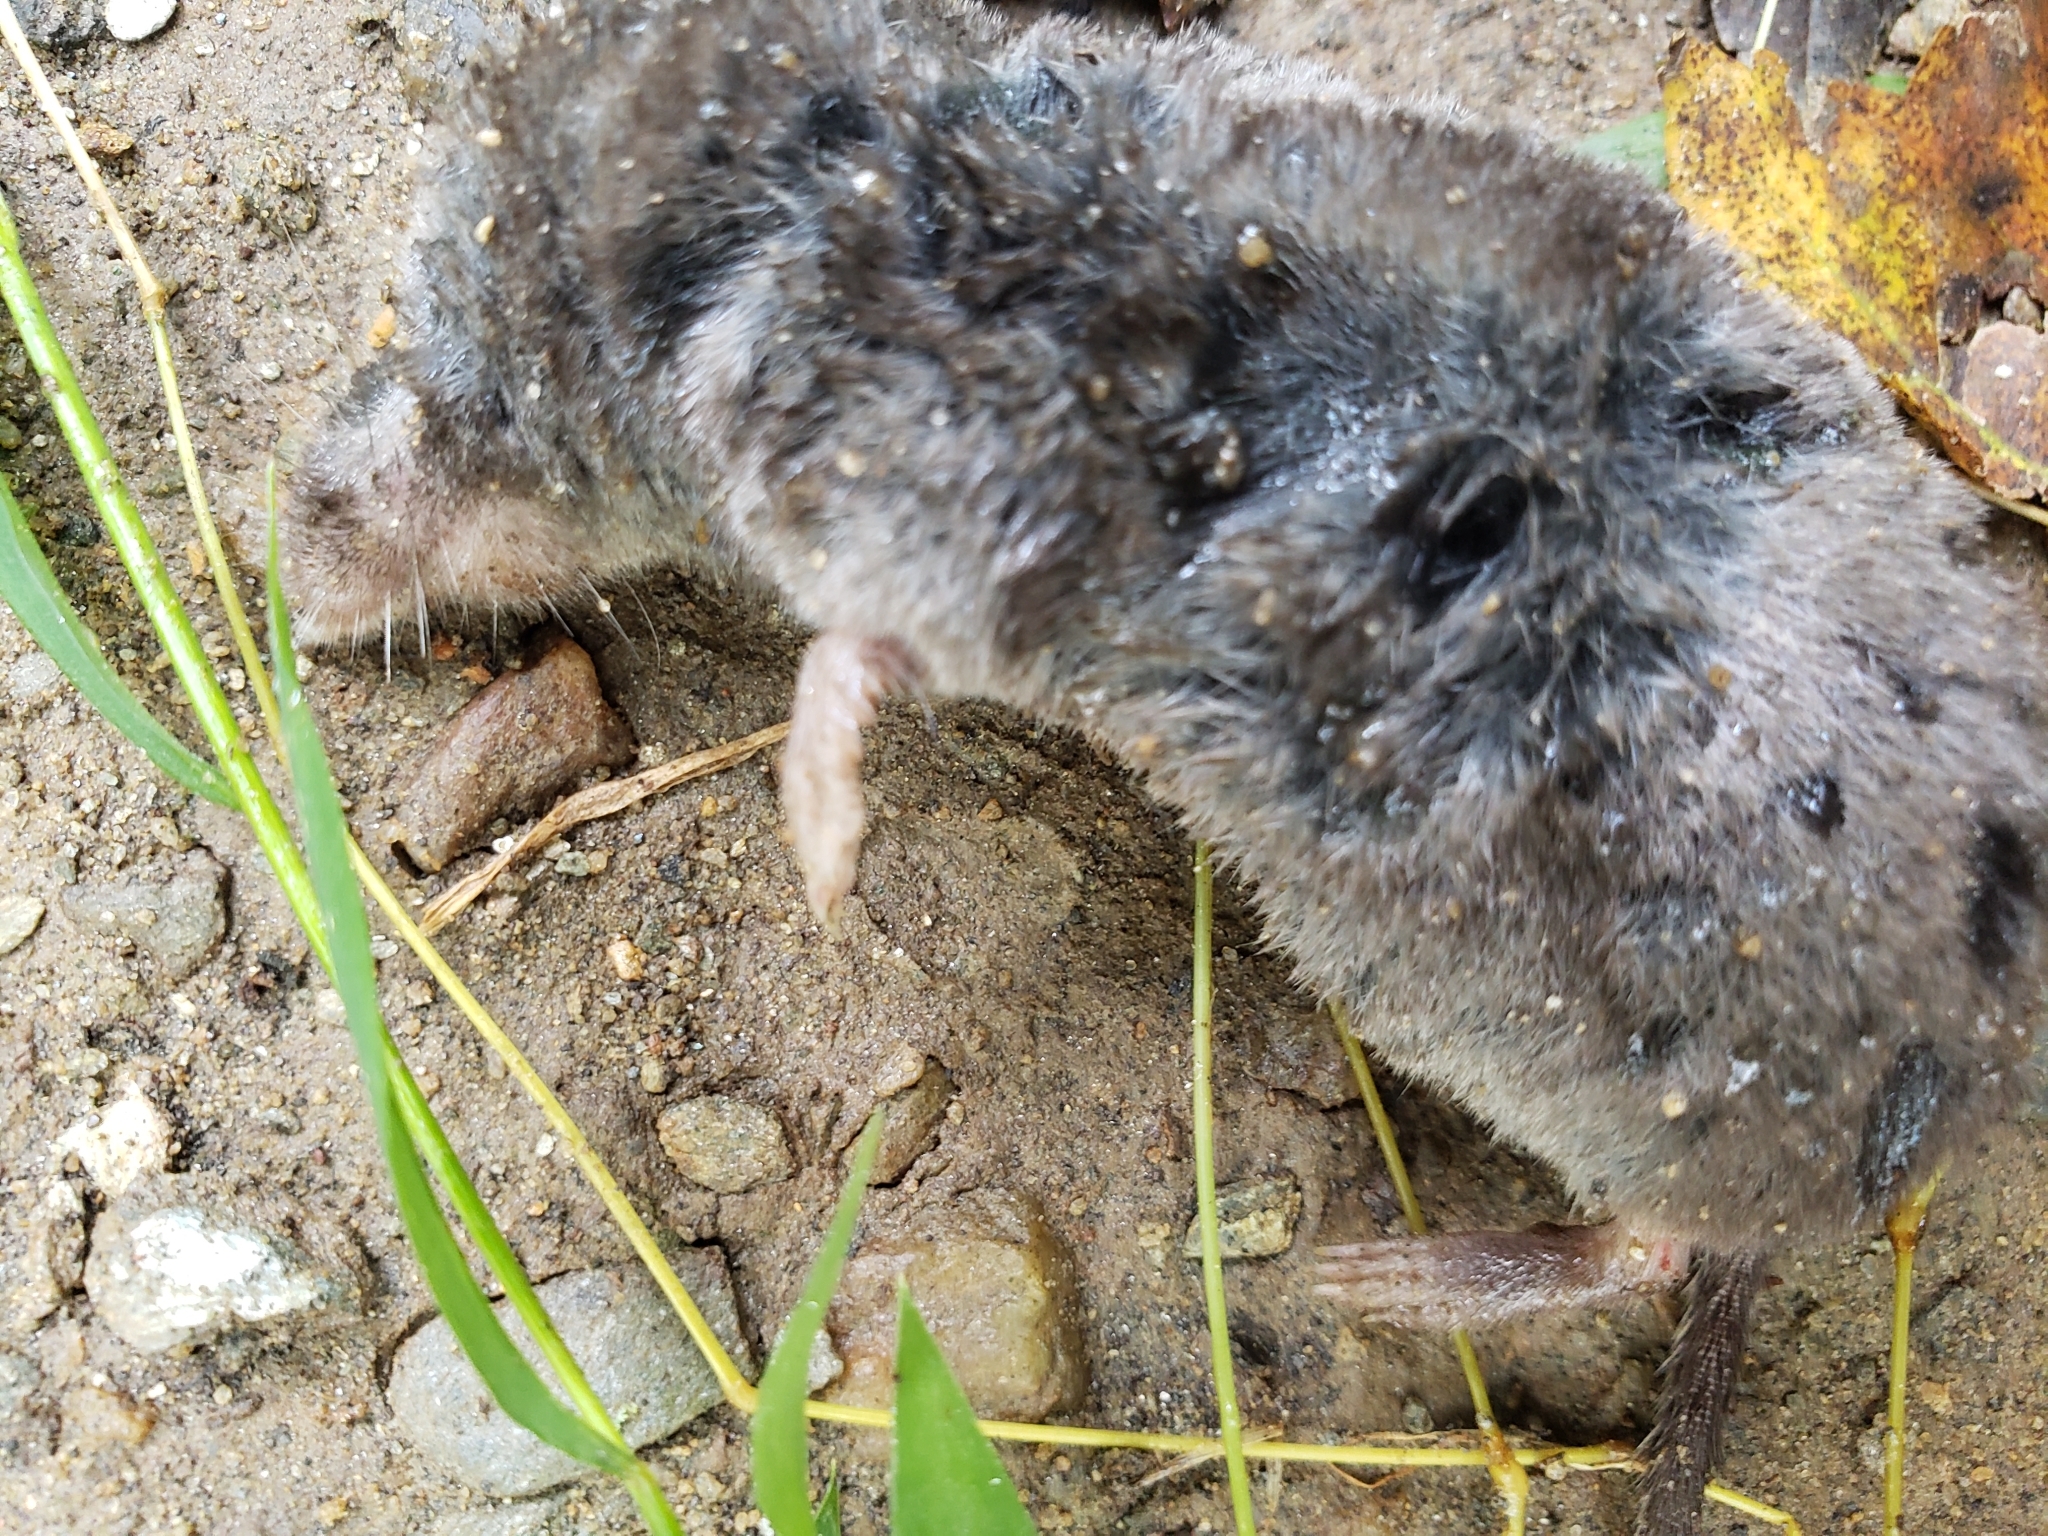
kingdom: Animalia
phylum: Chordata
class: Mammalia
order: Soricomorpha
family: Soricidae
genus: Blarina
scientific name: Blarina brevicauda
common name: Northern short-tailed shrew
